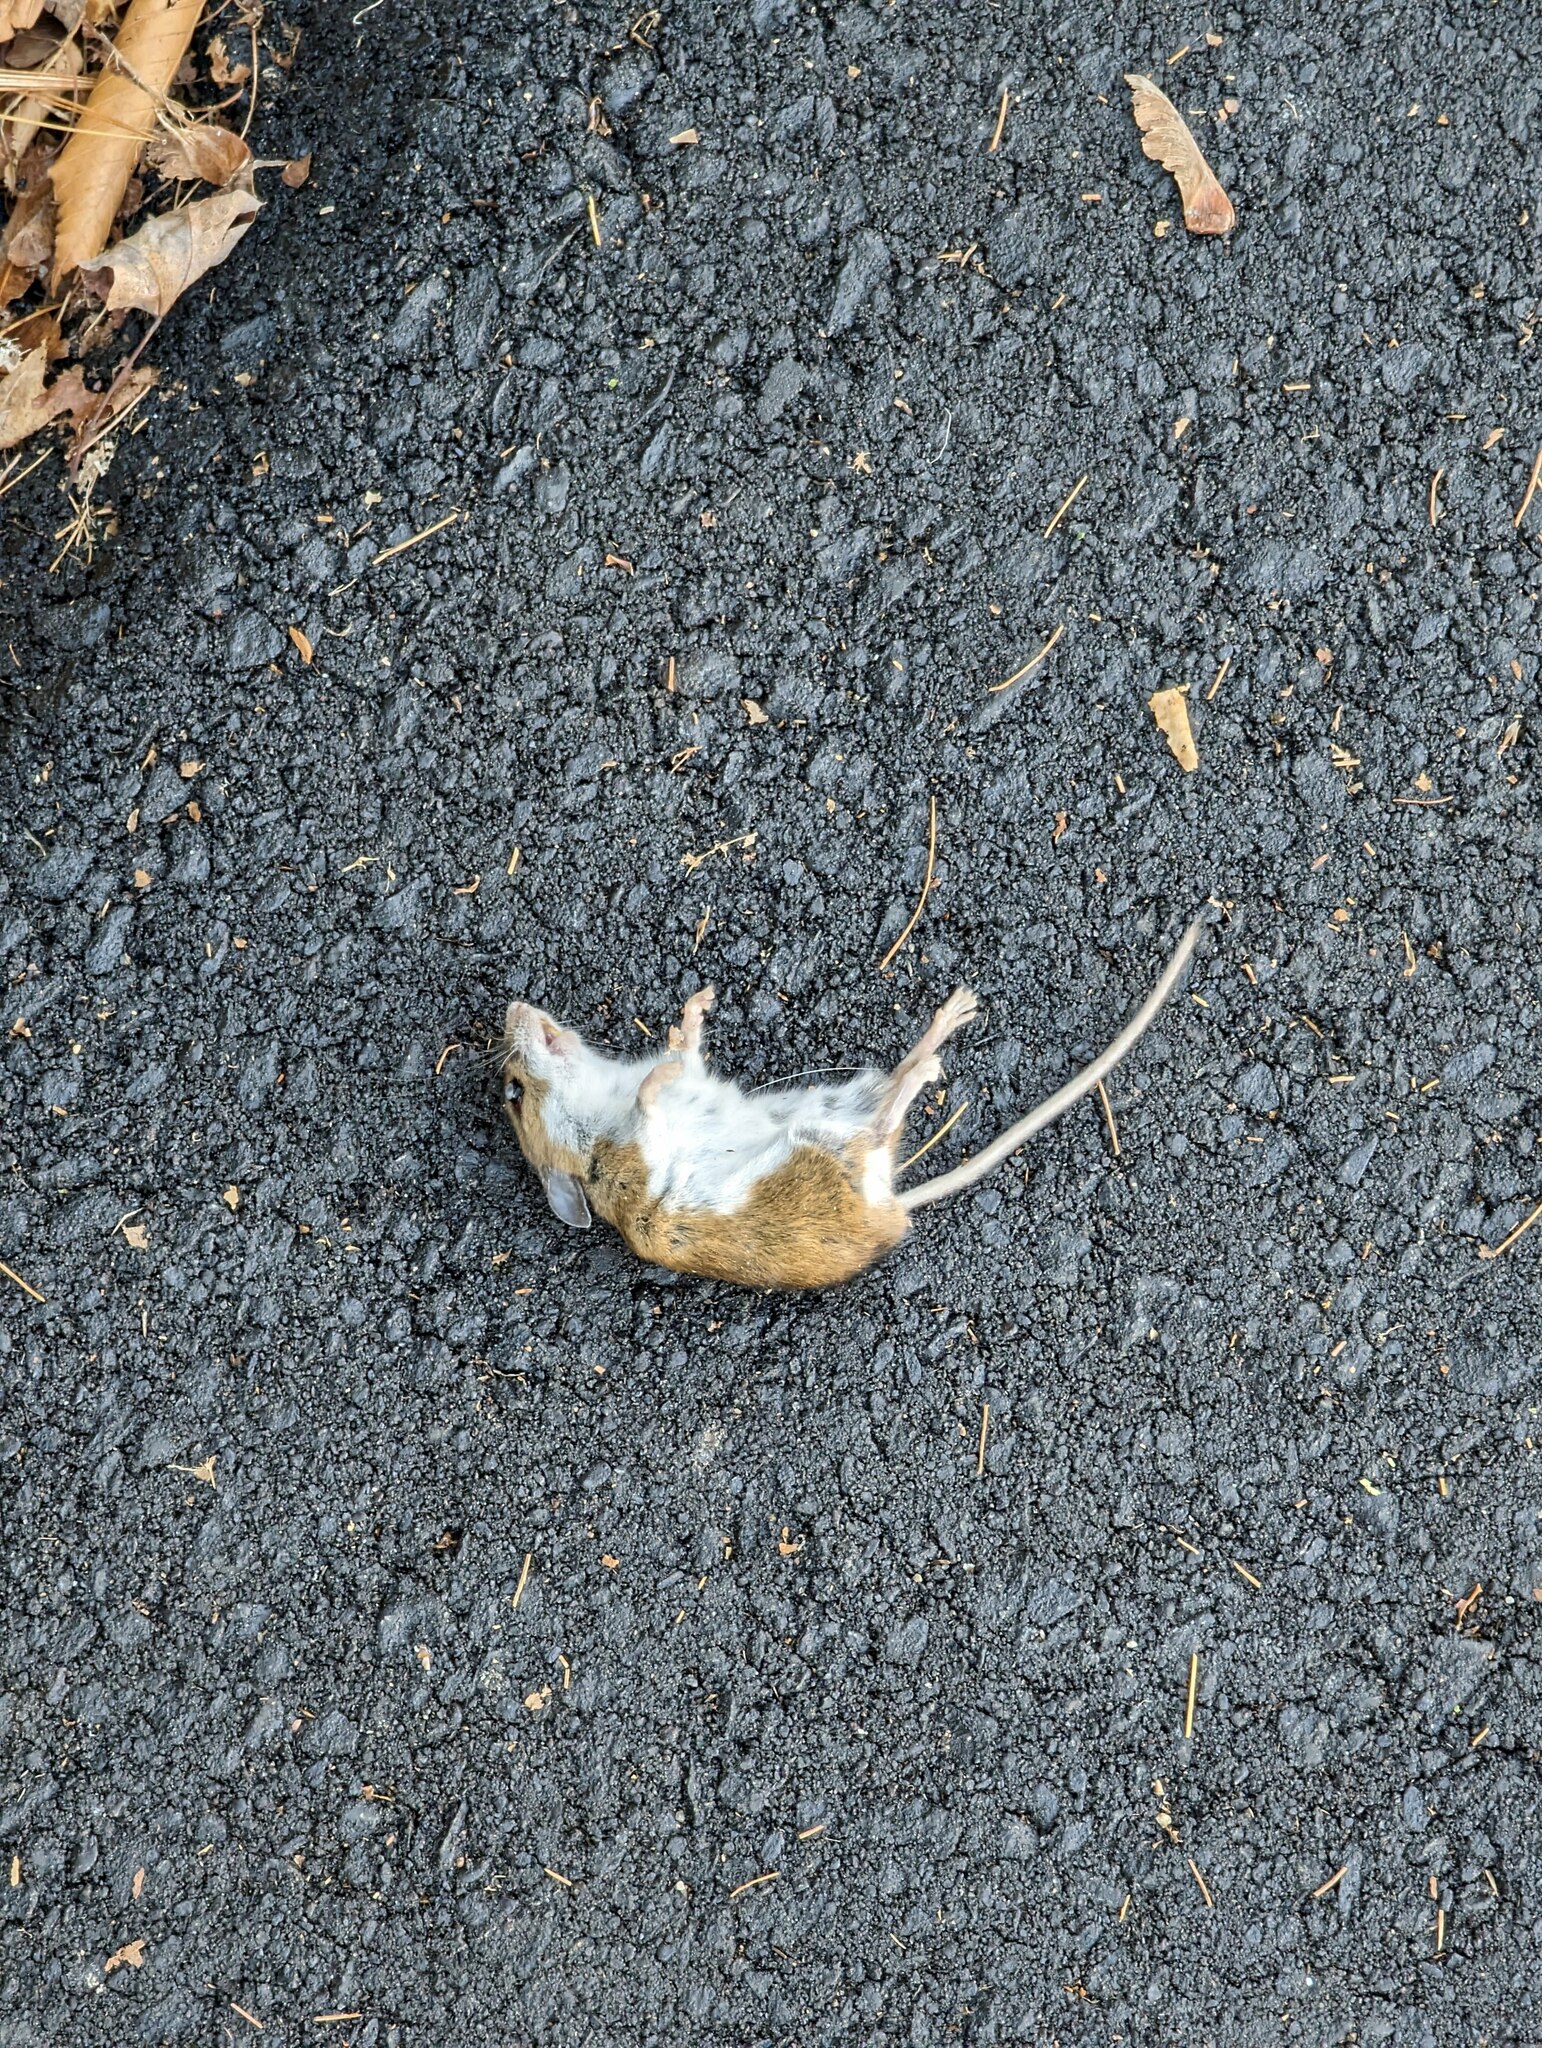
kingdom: Animalia
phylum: Chordata
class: Mammalia
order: Rodentia
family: Cricetidae
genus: Peromyscus
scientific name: Peromyscus leucopus
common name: White-footed deermouse
